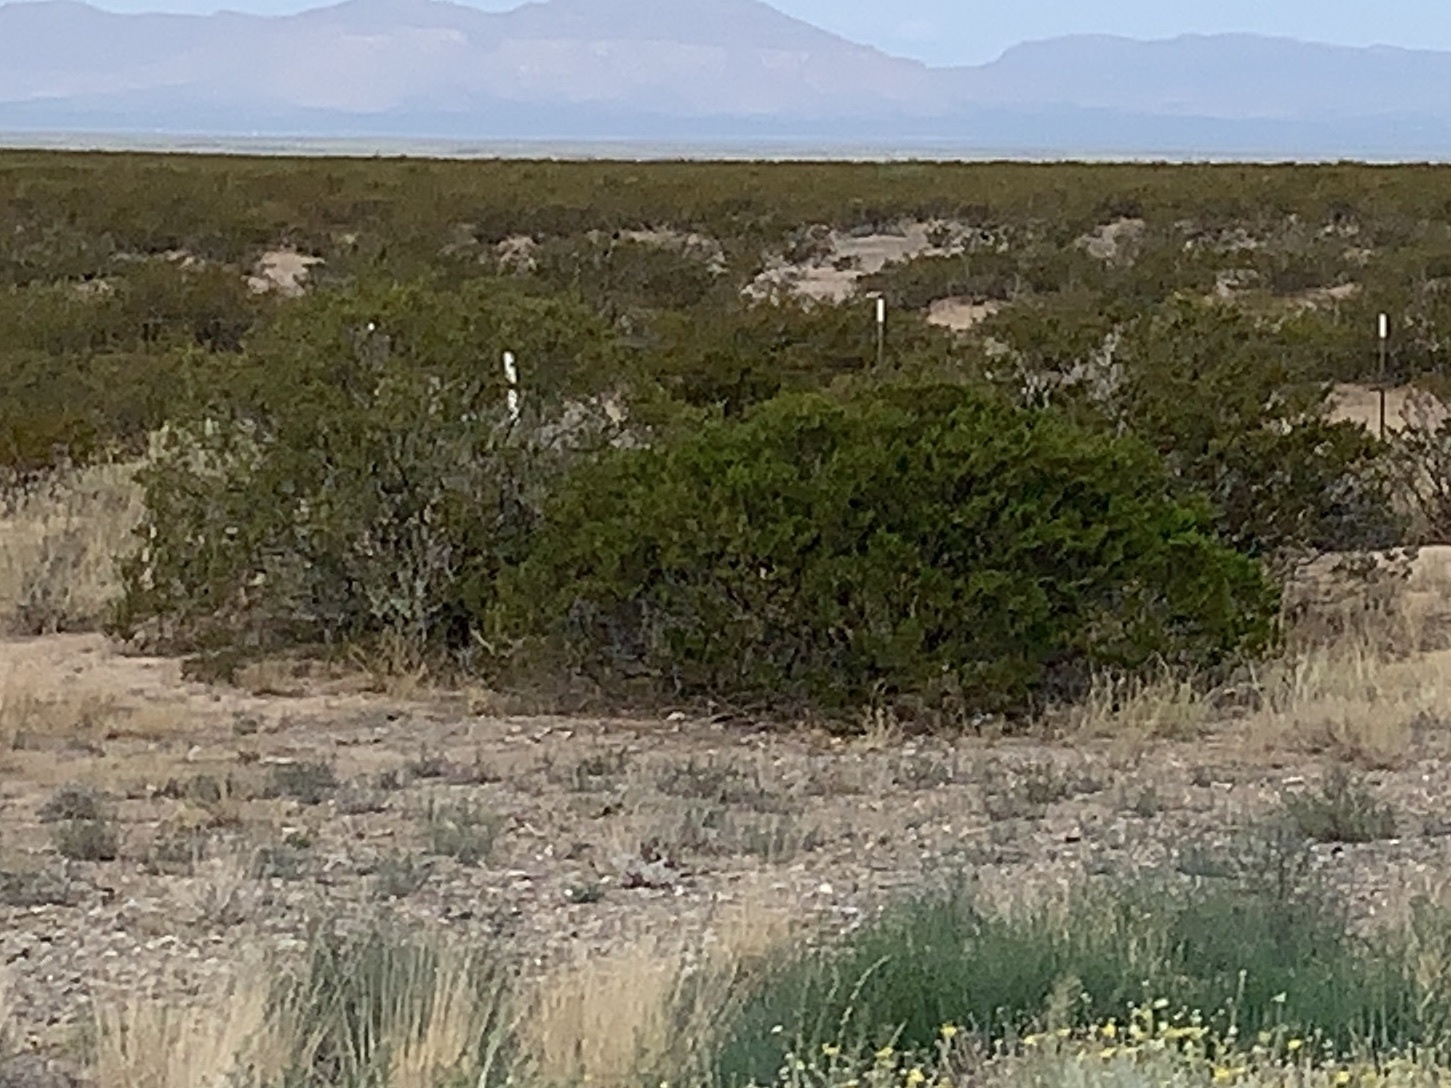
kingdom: Plantae
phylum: Tracheophyta
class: Magnoliopsida
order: Zygophyllales
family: Zygophyllaceae
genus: Larrea
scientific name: Larrea tridentata
